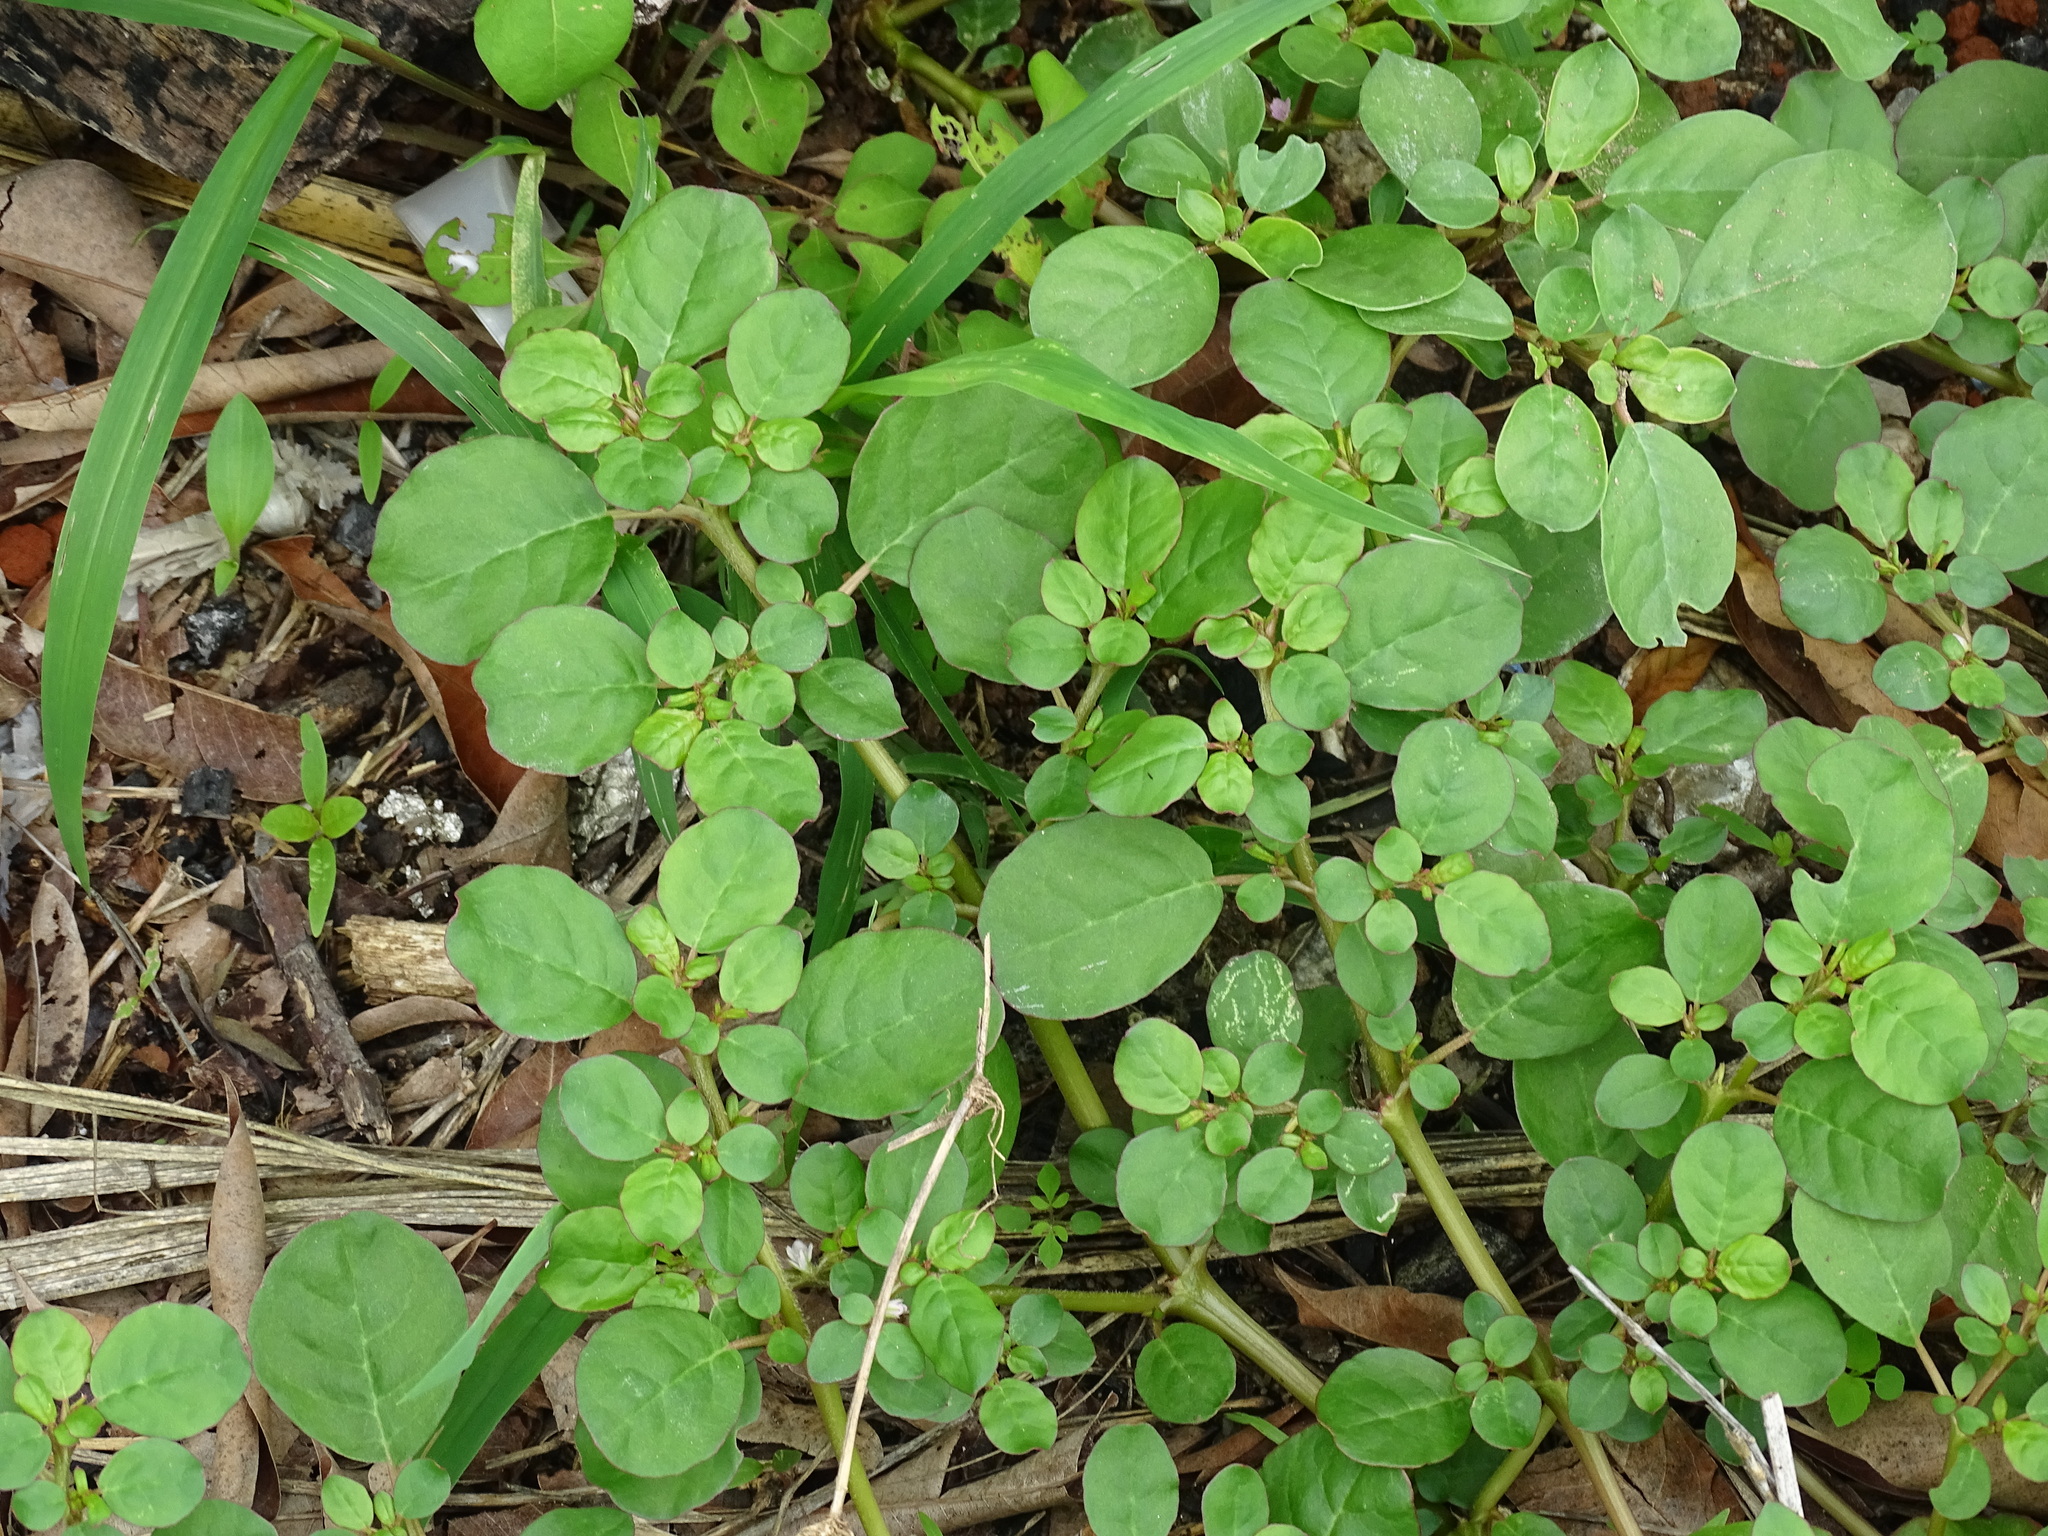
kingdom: Plantae
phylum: Tracheophyta
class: Magnoliopsida
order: Caryophyllales
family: Aizoaceae
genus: Trianthema
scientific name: Trianthema portulacastrum
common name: Desert horsepurslane
